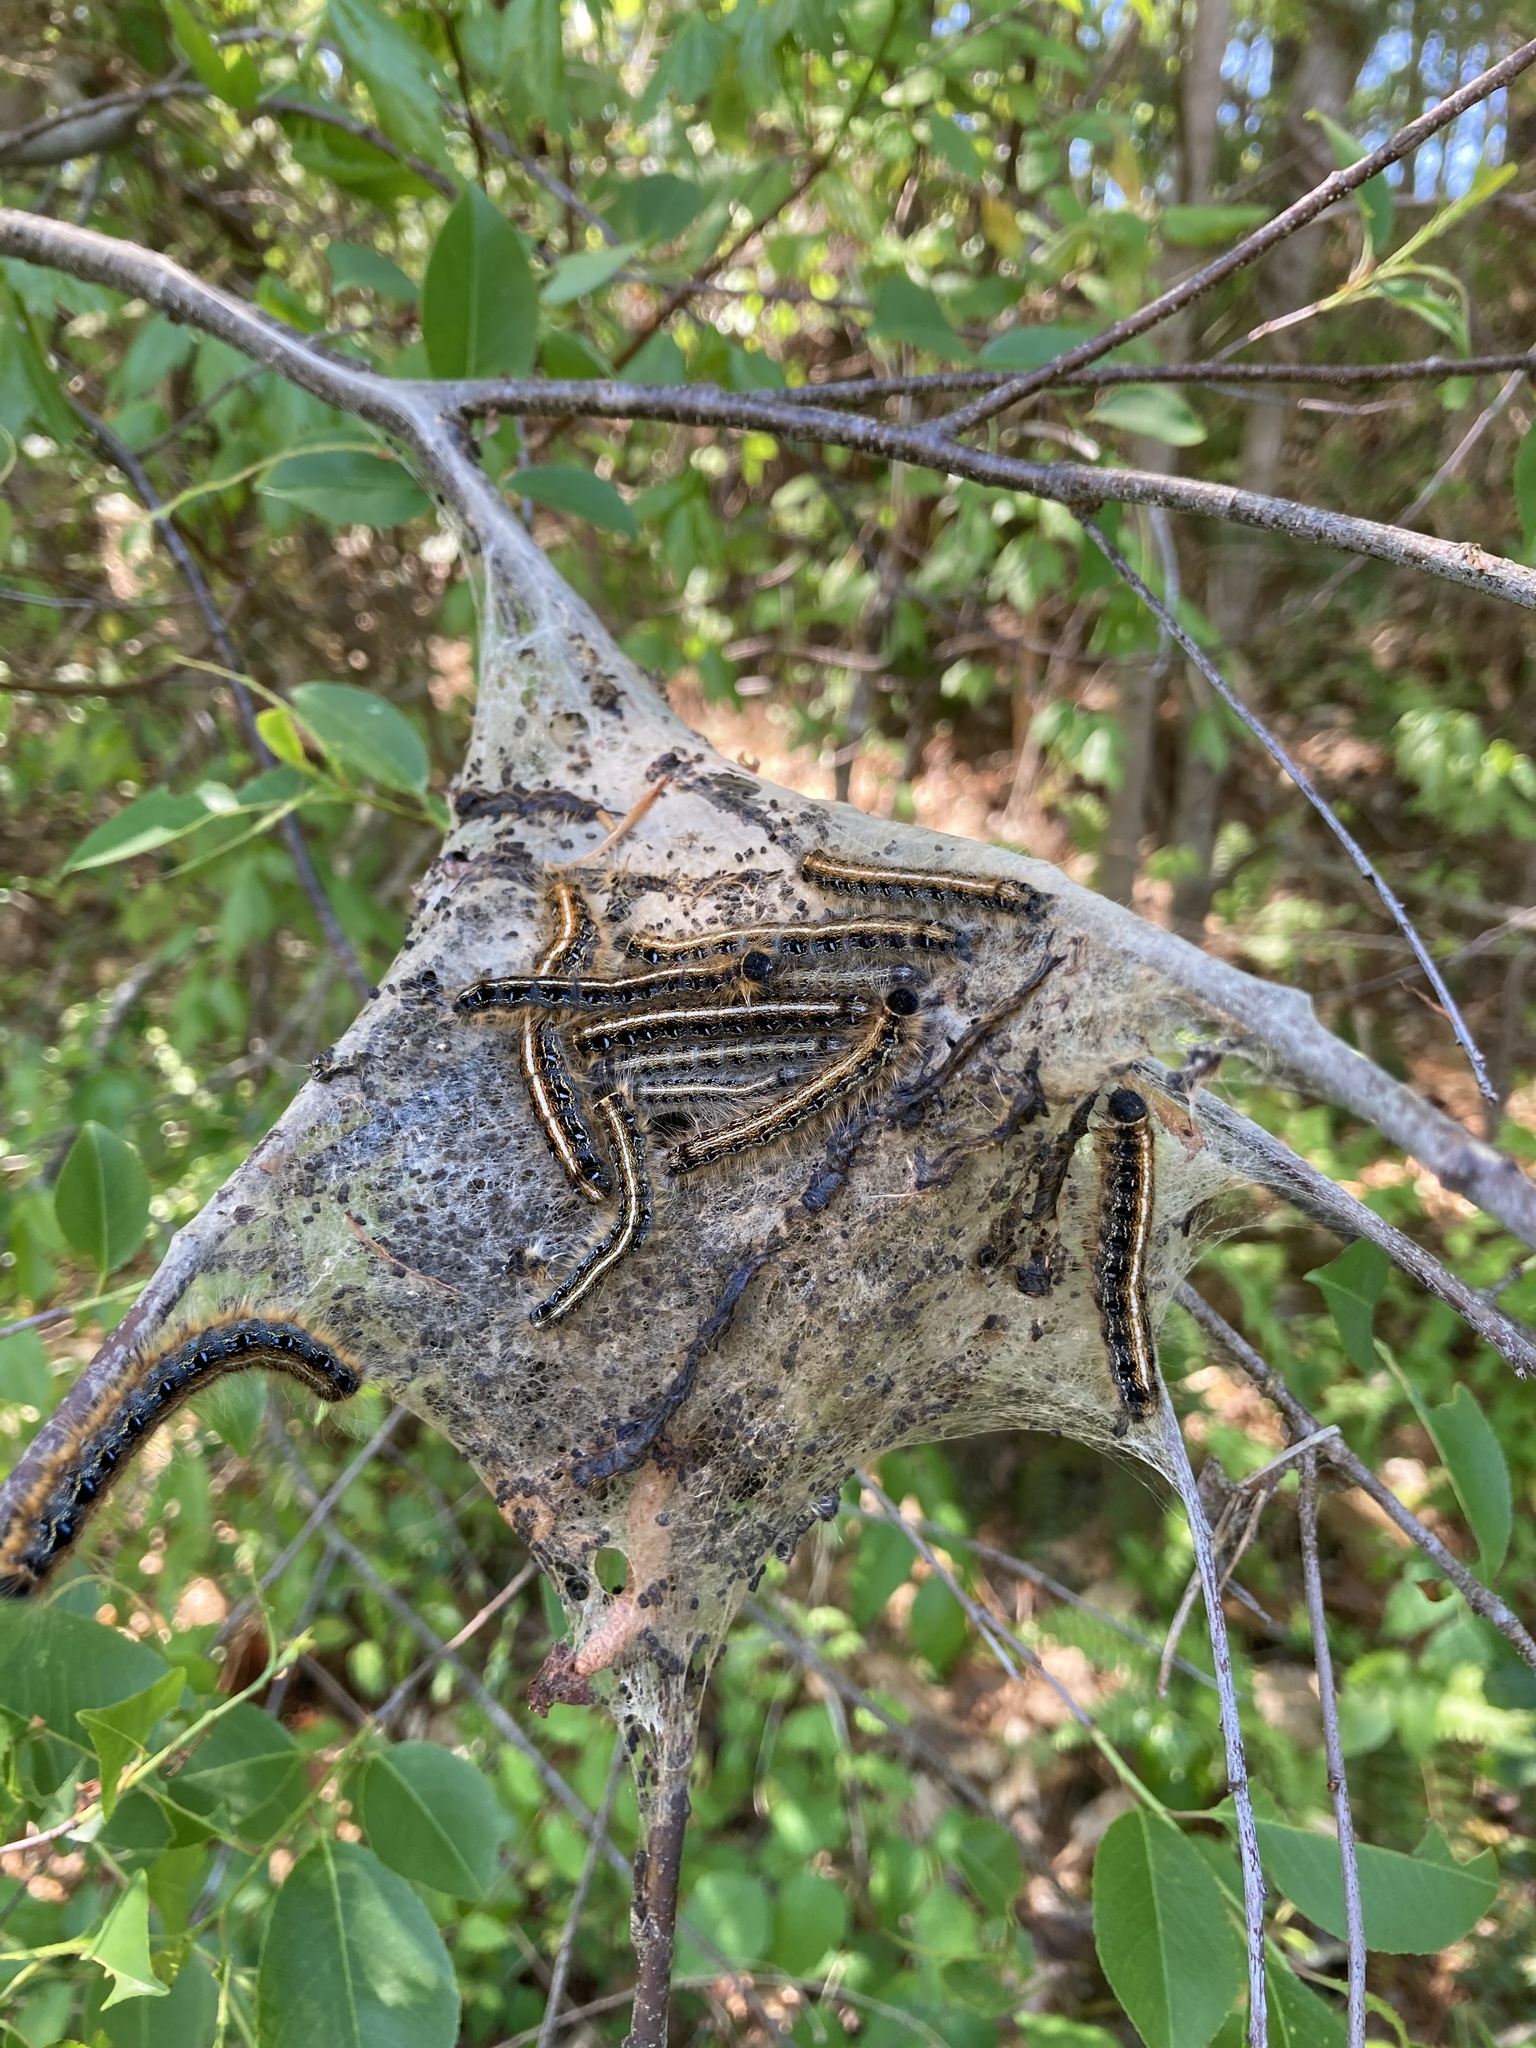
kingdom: Animalia
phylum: Arthropoda
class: Insecta
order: Lepidoptera
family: Lasiocampidae
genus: Malacosoma
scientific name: Malacosoma americana
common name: Eastern tent caterpillar moth
